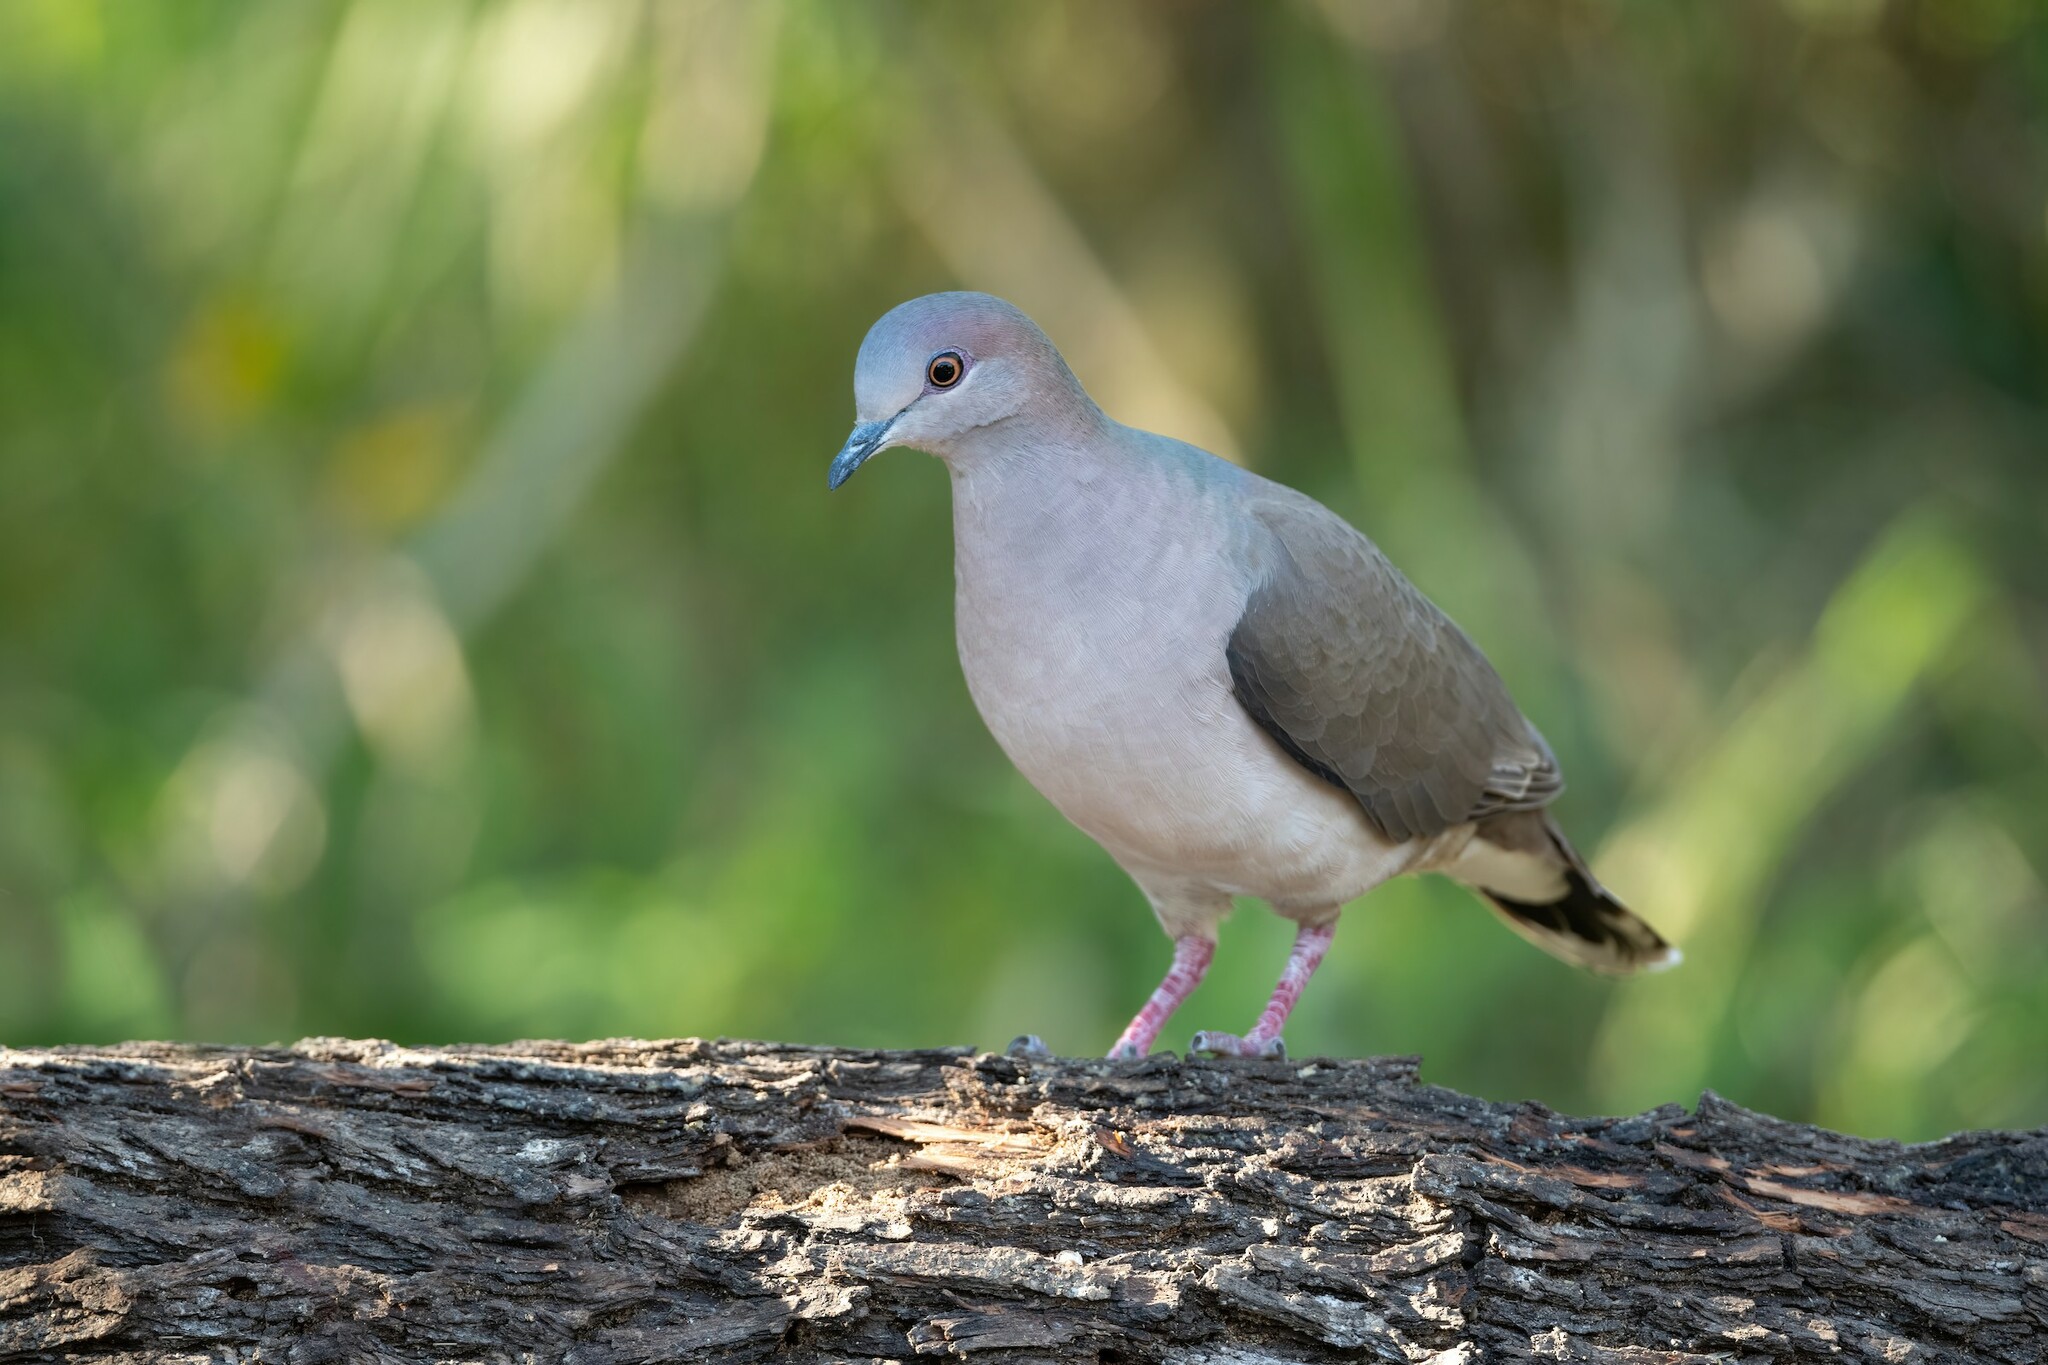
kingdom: Animalia
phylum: Chordata
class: Aves
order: Columbiformes
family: Columbidae
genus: Leptotila
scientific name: Leptotila verreauxi
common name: White-tipped dove
